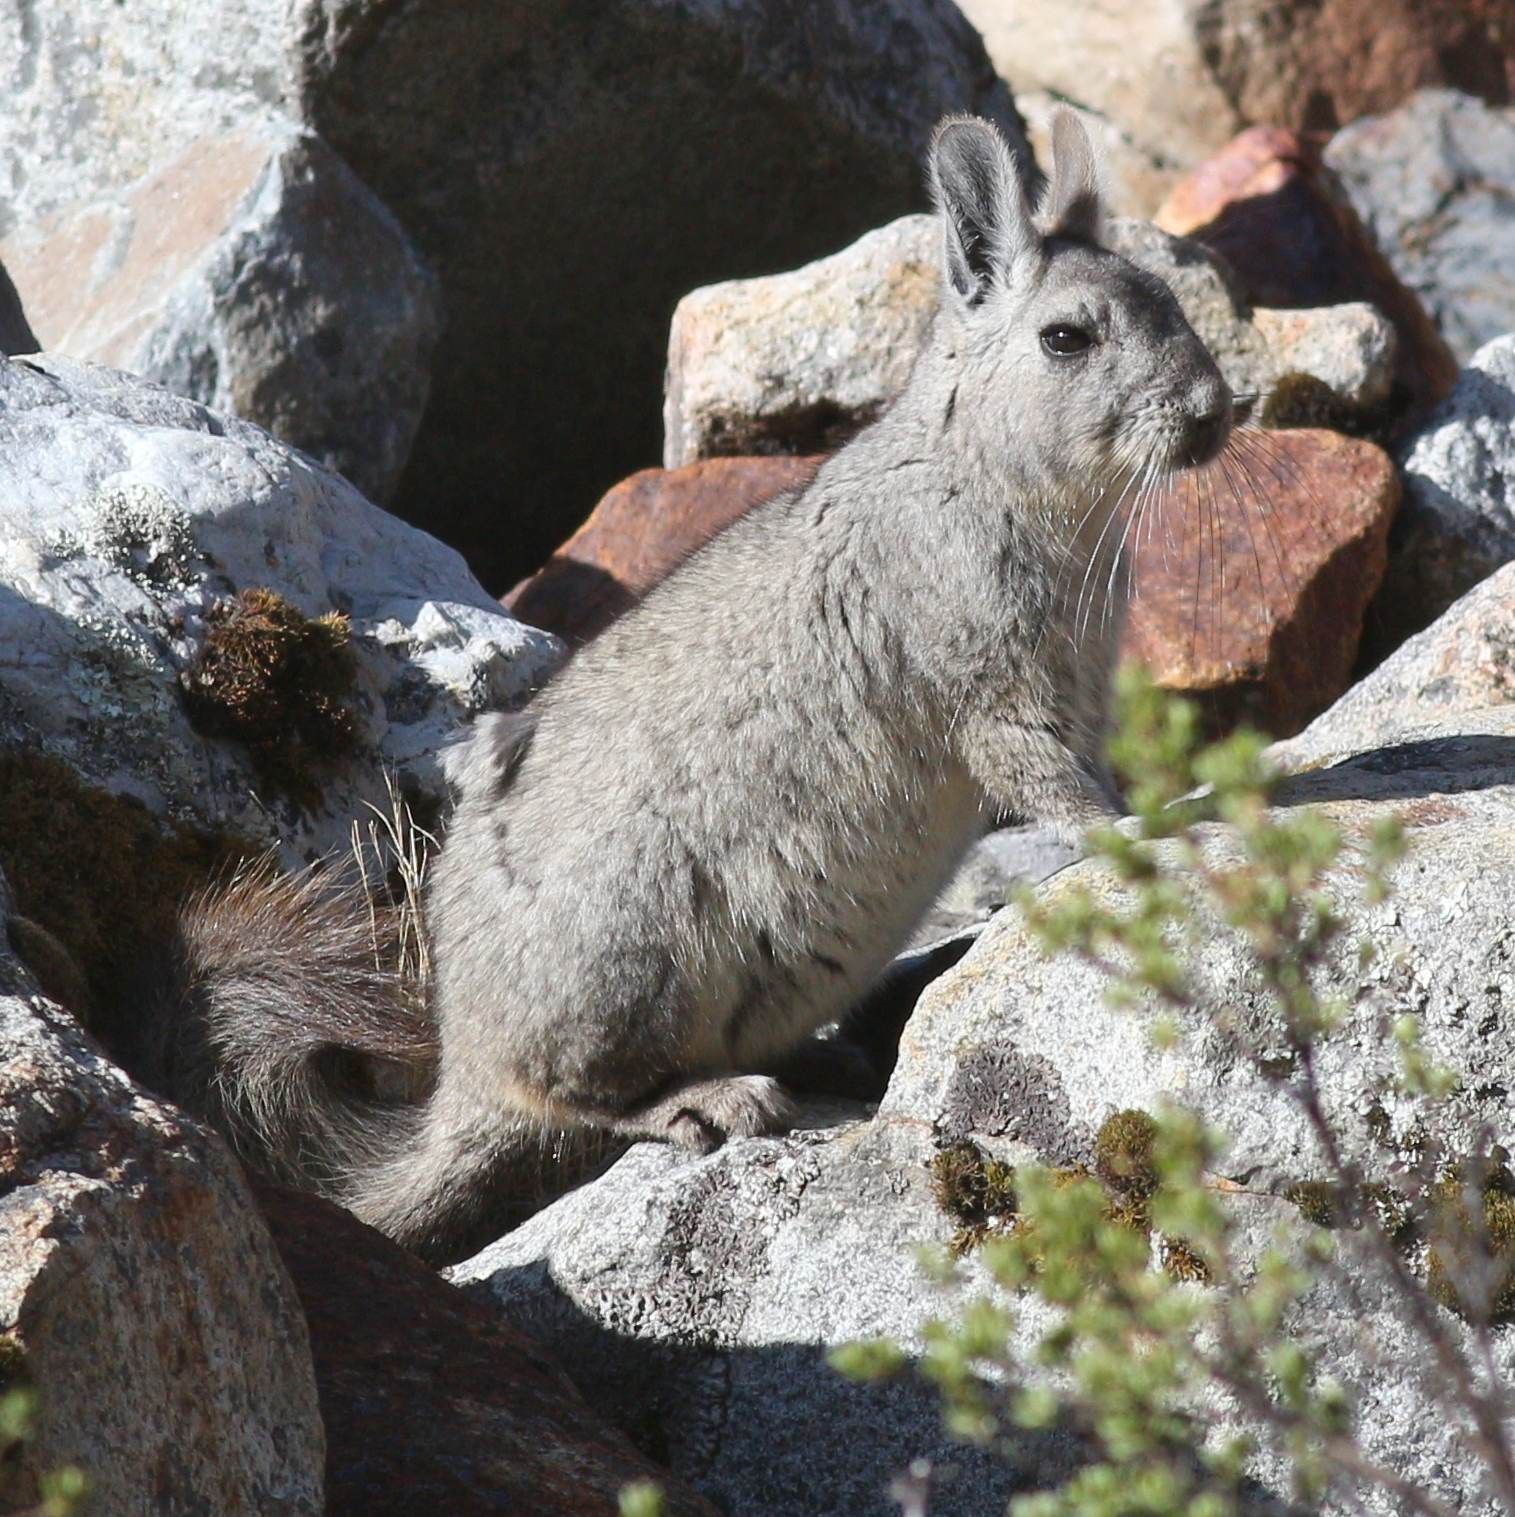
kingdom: Animalia
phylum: Chordata
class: Mammalia
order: Rodentia
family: Chinchillidae
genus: Lagidium
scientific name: Lagidium viscacia
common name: Southern viscacha
